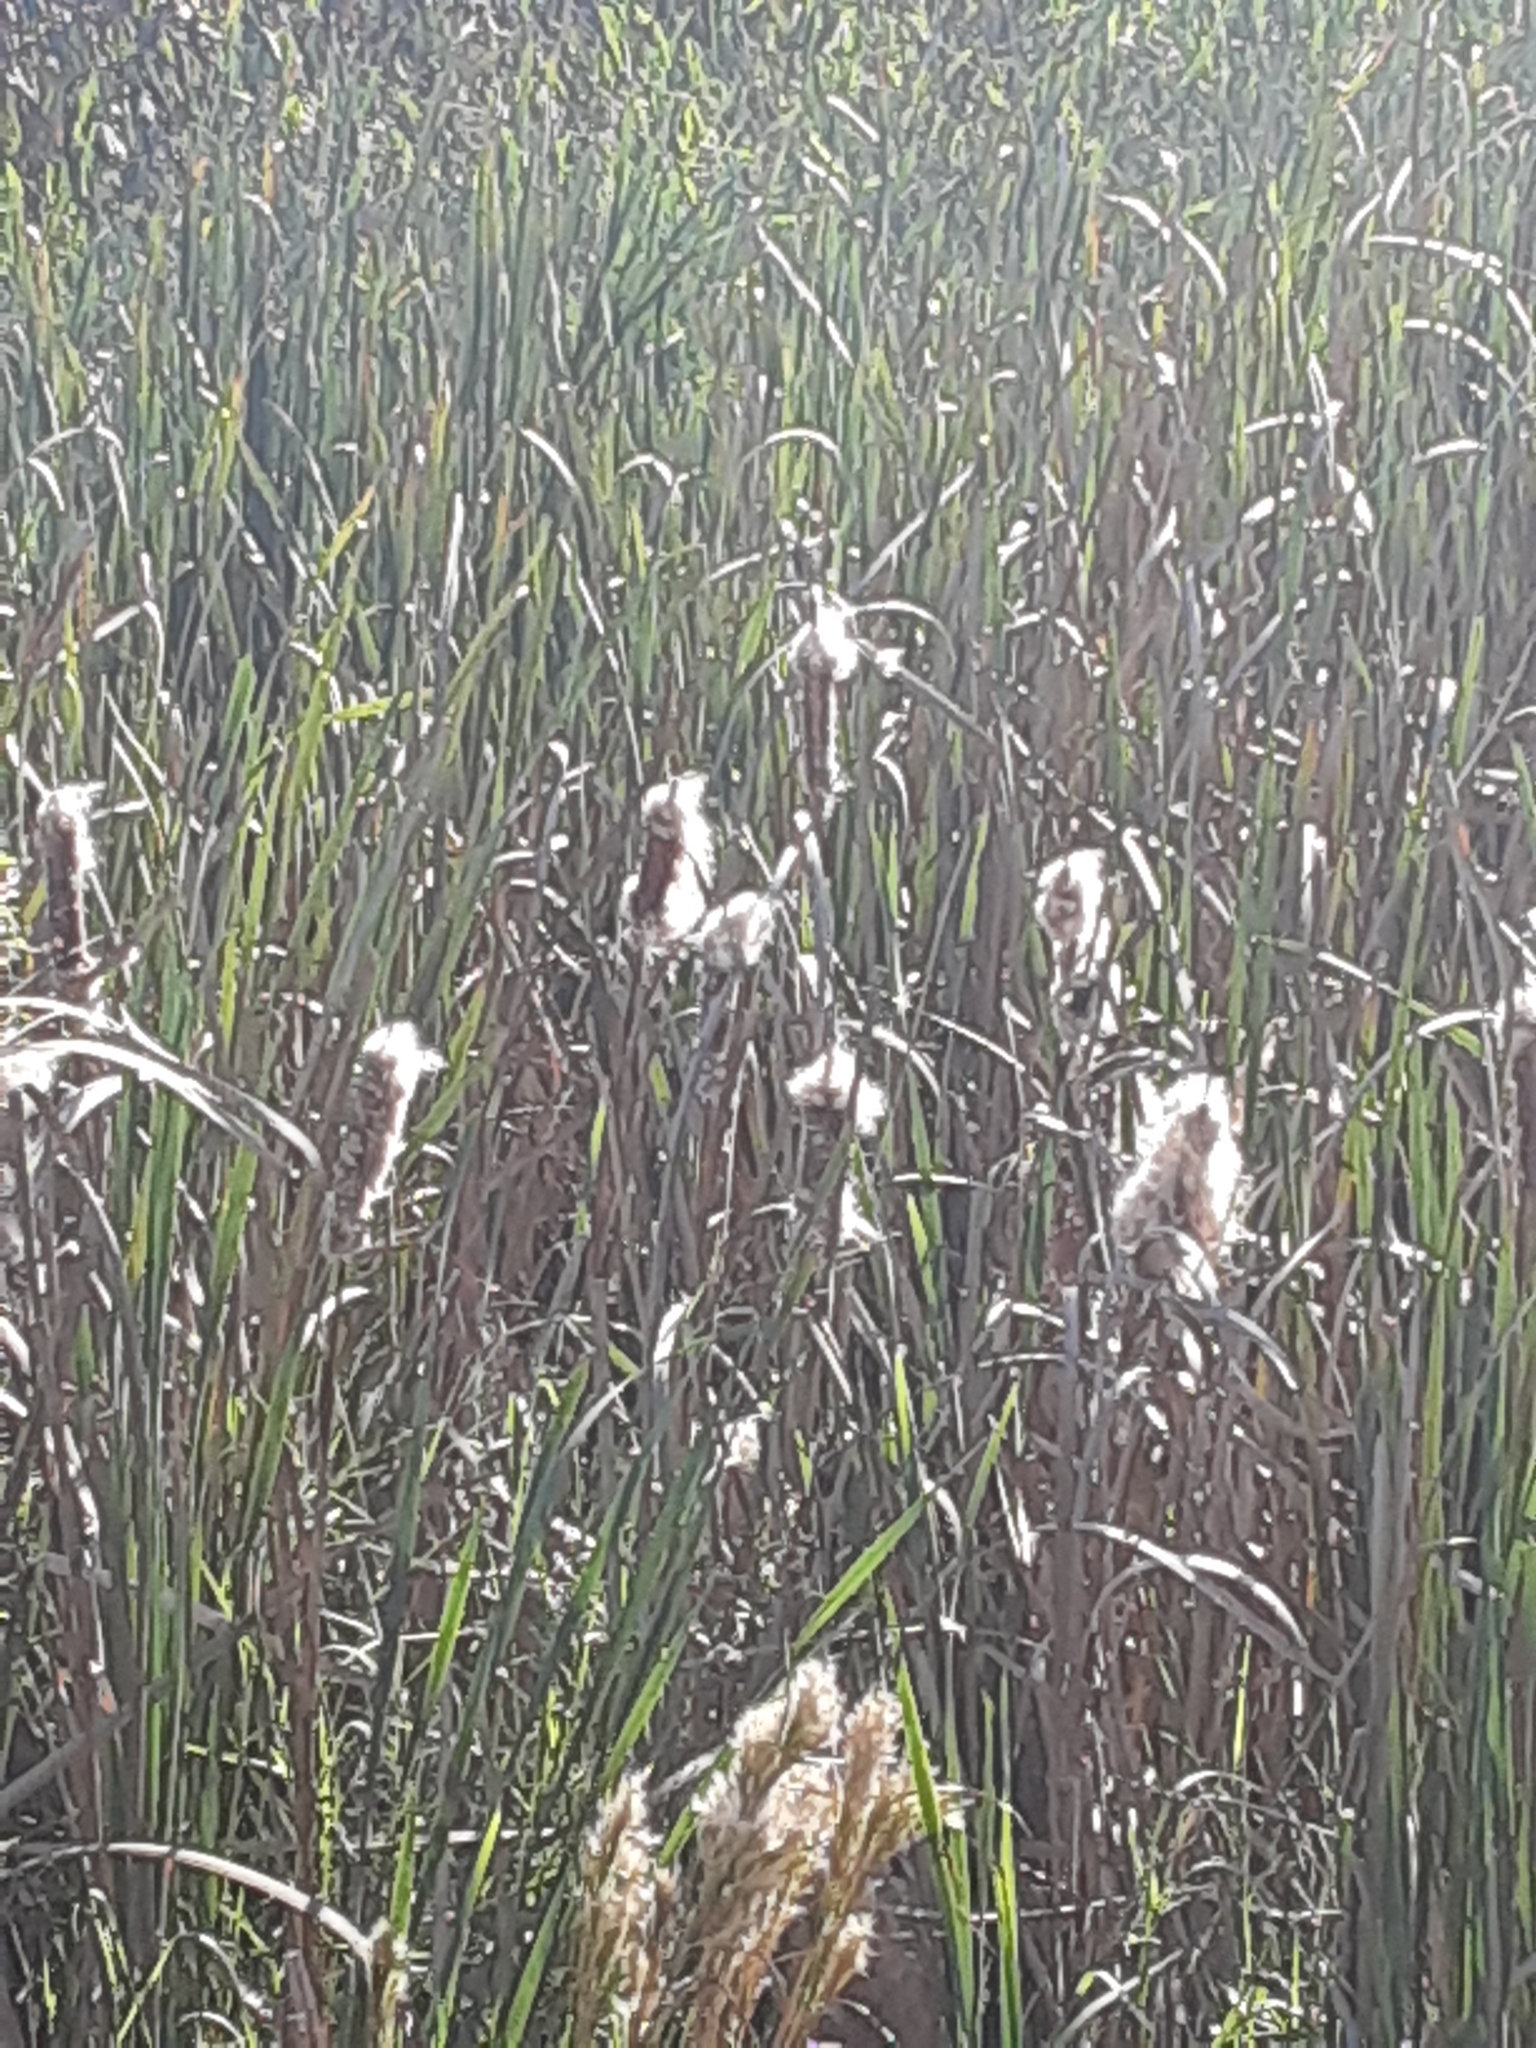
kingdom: Plantae
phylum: Tracheophyta
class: Liliopsida
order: Poales
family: Typhaceae
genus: Typha
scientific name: Typha
